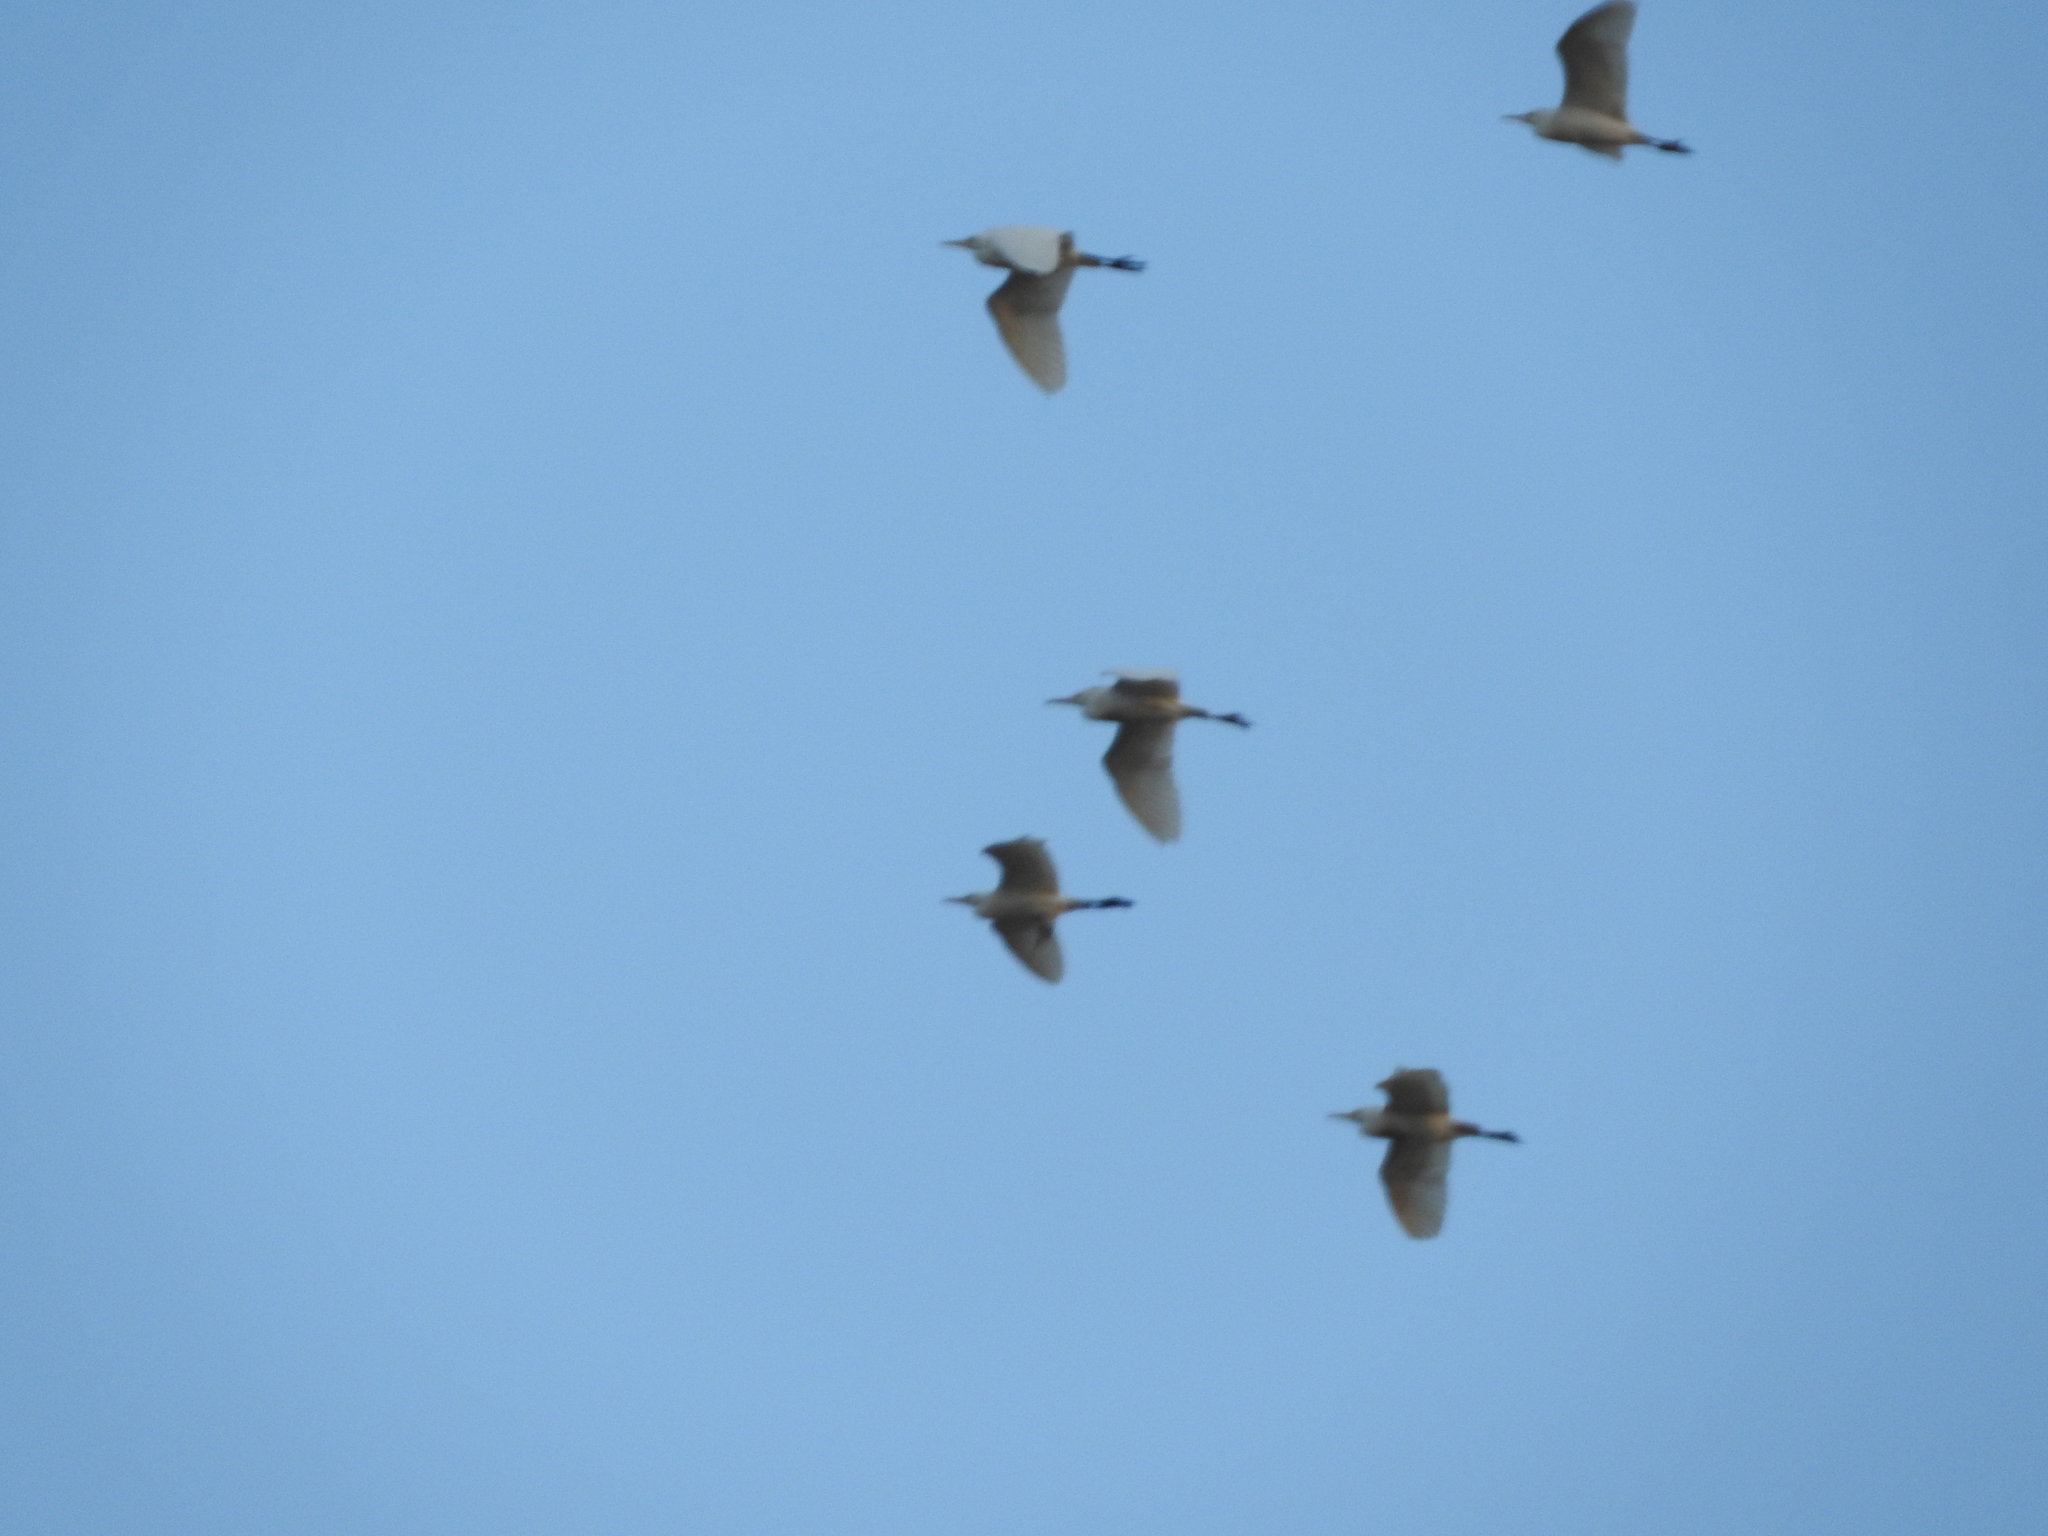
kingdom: Animalia
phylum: Chordata
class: Aves
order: Pelecaniformes
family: Ardeidae
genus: Bubulcus
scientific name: Bubulcus ibis
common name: Cattle egret
